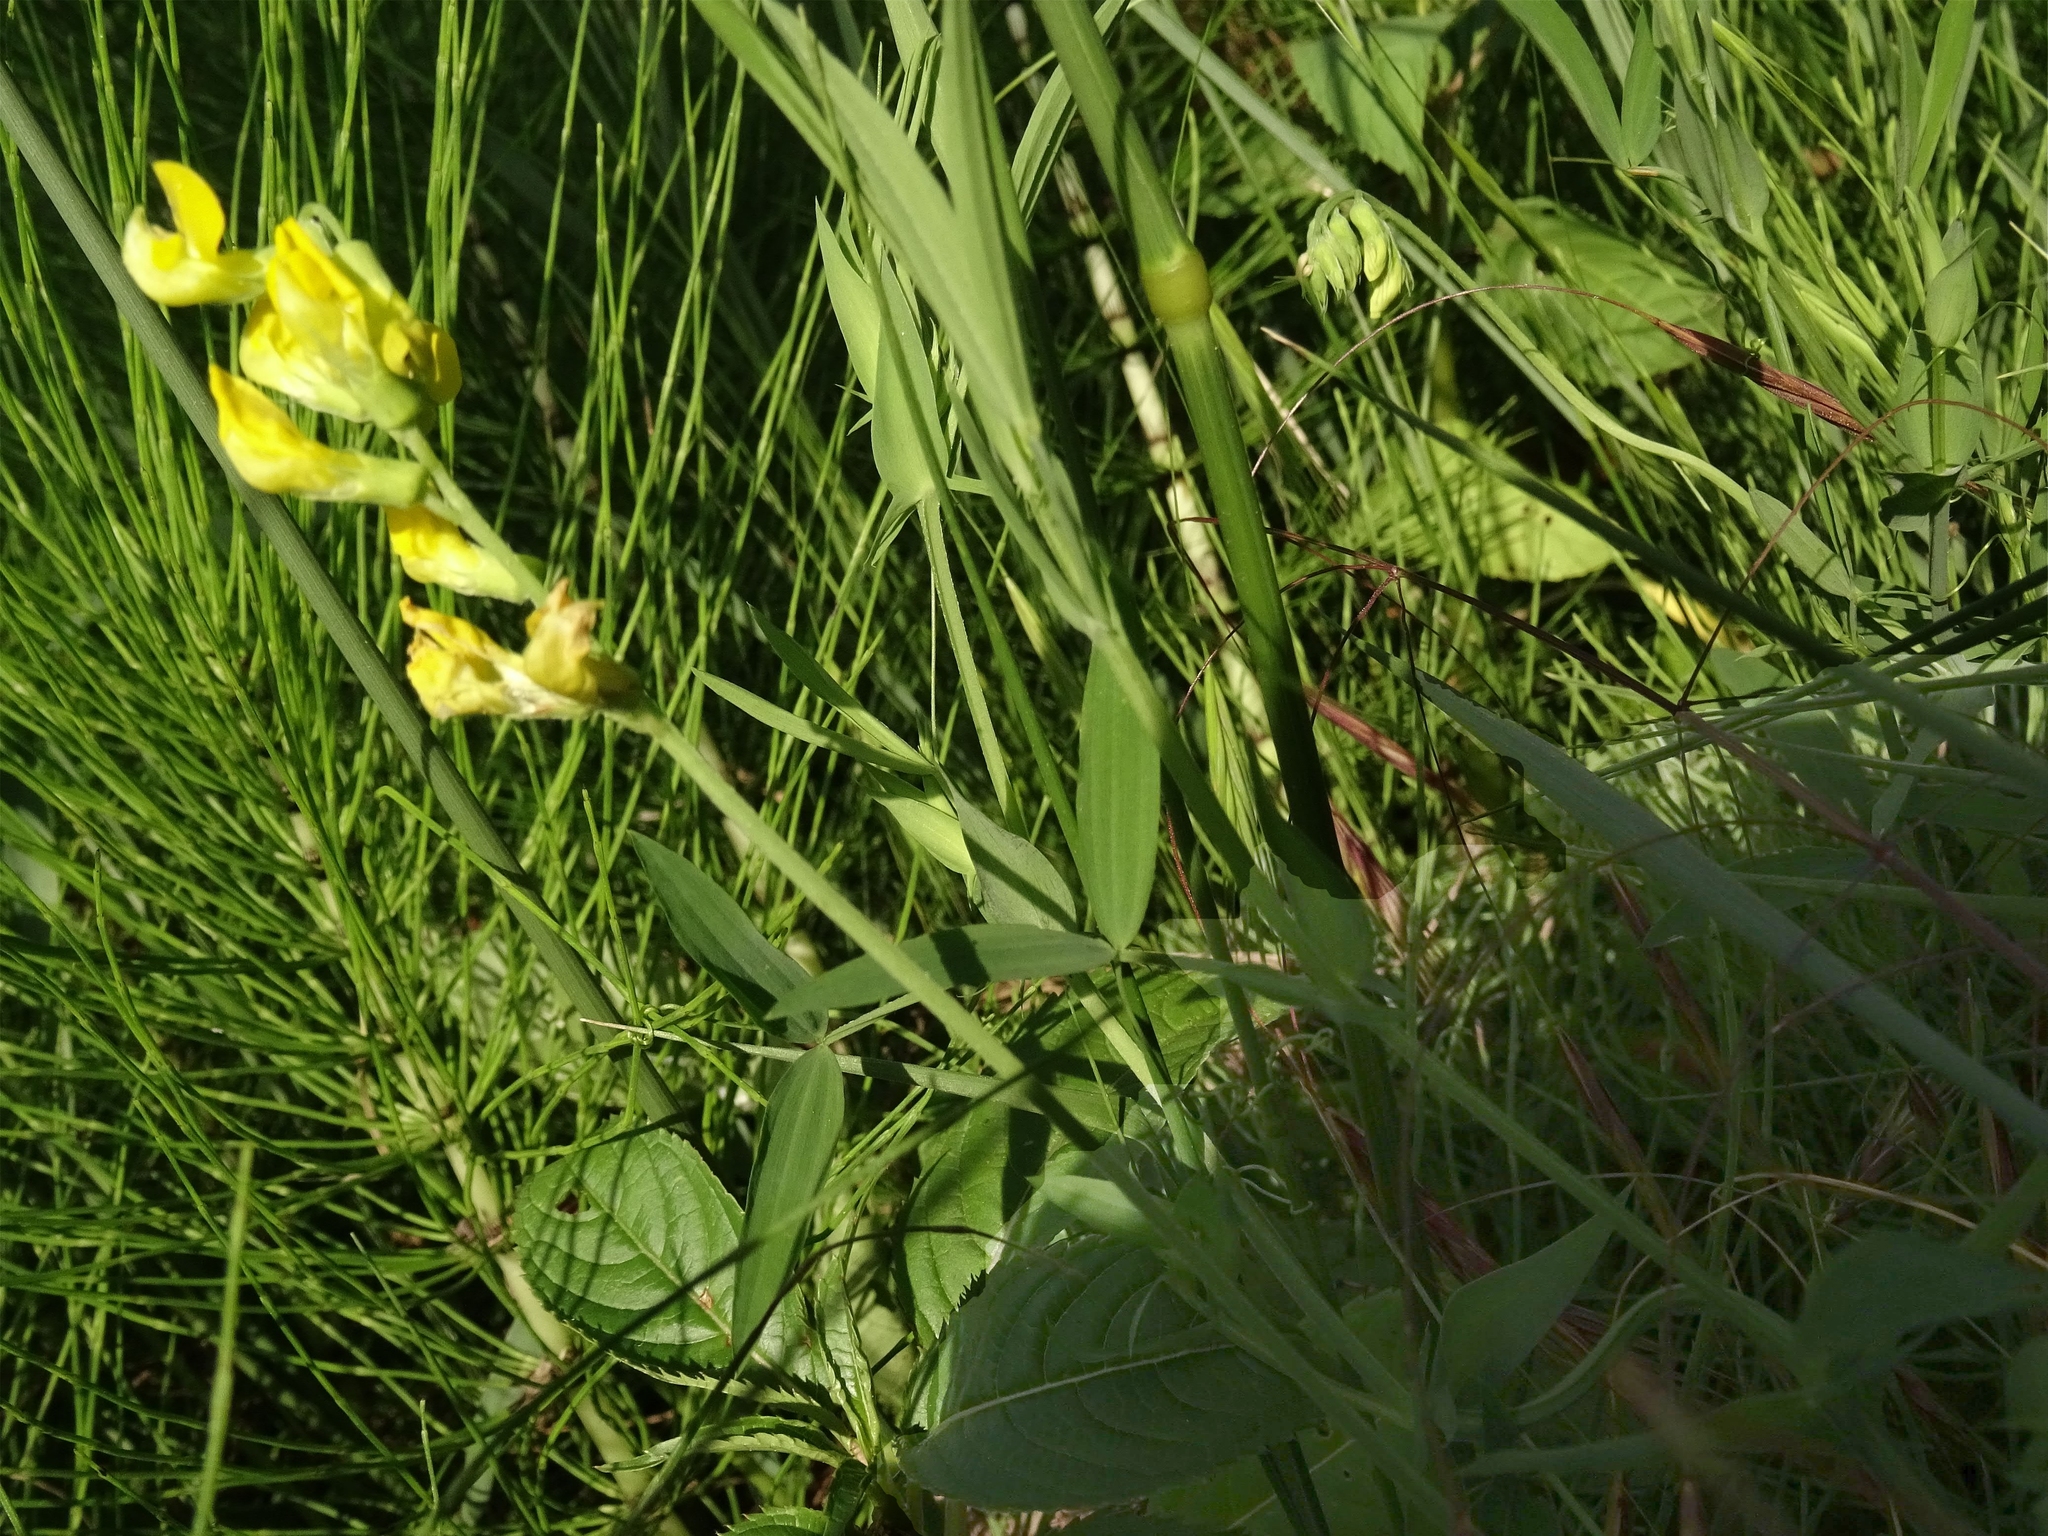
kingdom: Plantae
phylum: Tracheophyta
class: Magnoliopsida
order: Fabales
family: Fabaceae
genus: Lathyrus
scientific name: Lathyrus pratensis
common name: Meadow vetchling
